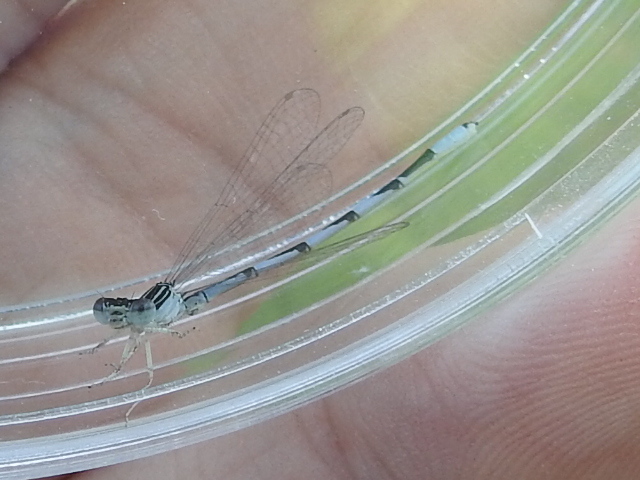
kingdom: Animalia
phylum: Arthropoda
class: Insecta
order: Odonata
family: Coenagrionidae
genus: Enallagma
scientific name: Enallagma basidens
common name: Double-striped bluet
